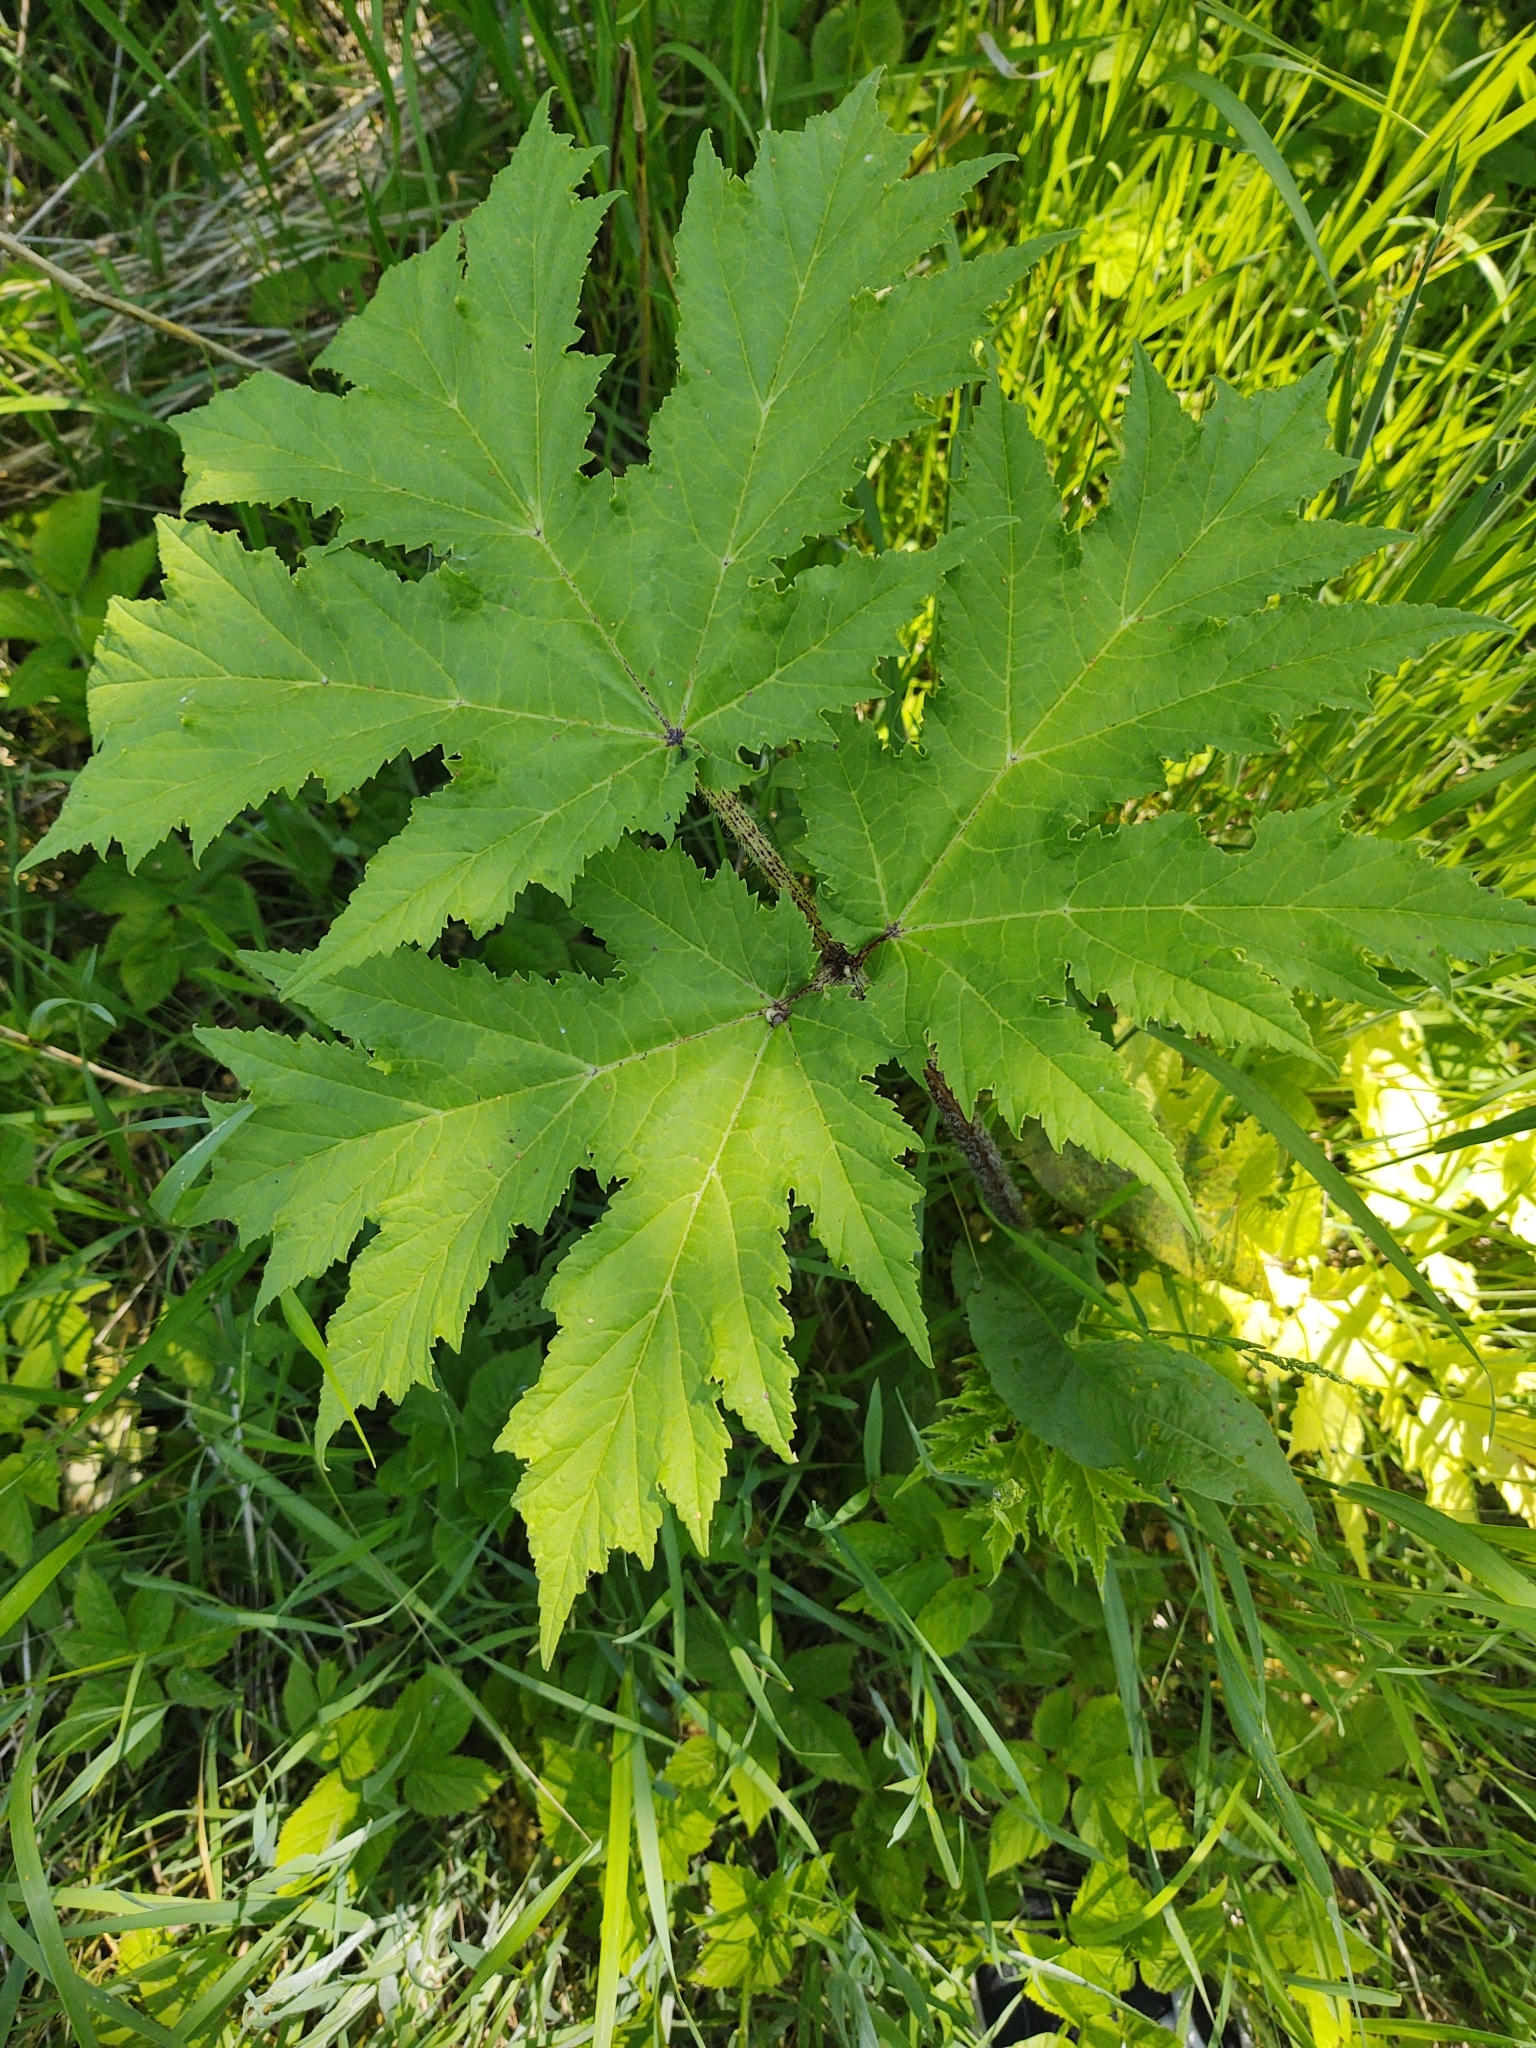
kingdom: Plantae
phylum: Tracheophyta
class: Magnoliopsida
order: Apiales
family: Apiaceae
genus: Heracleum
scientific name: Heracleum mantegazzianum
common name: Giant hogweed
